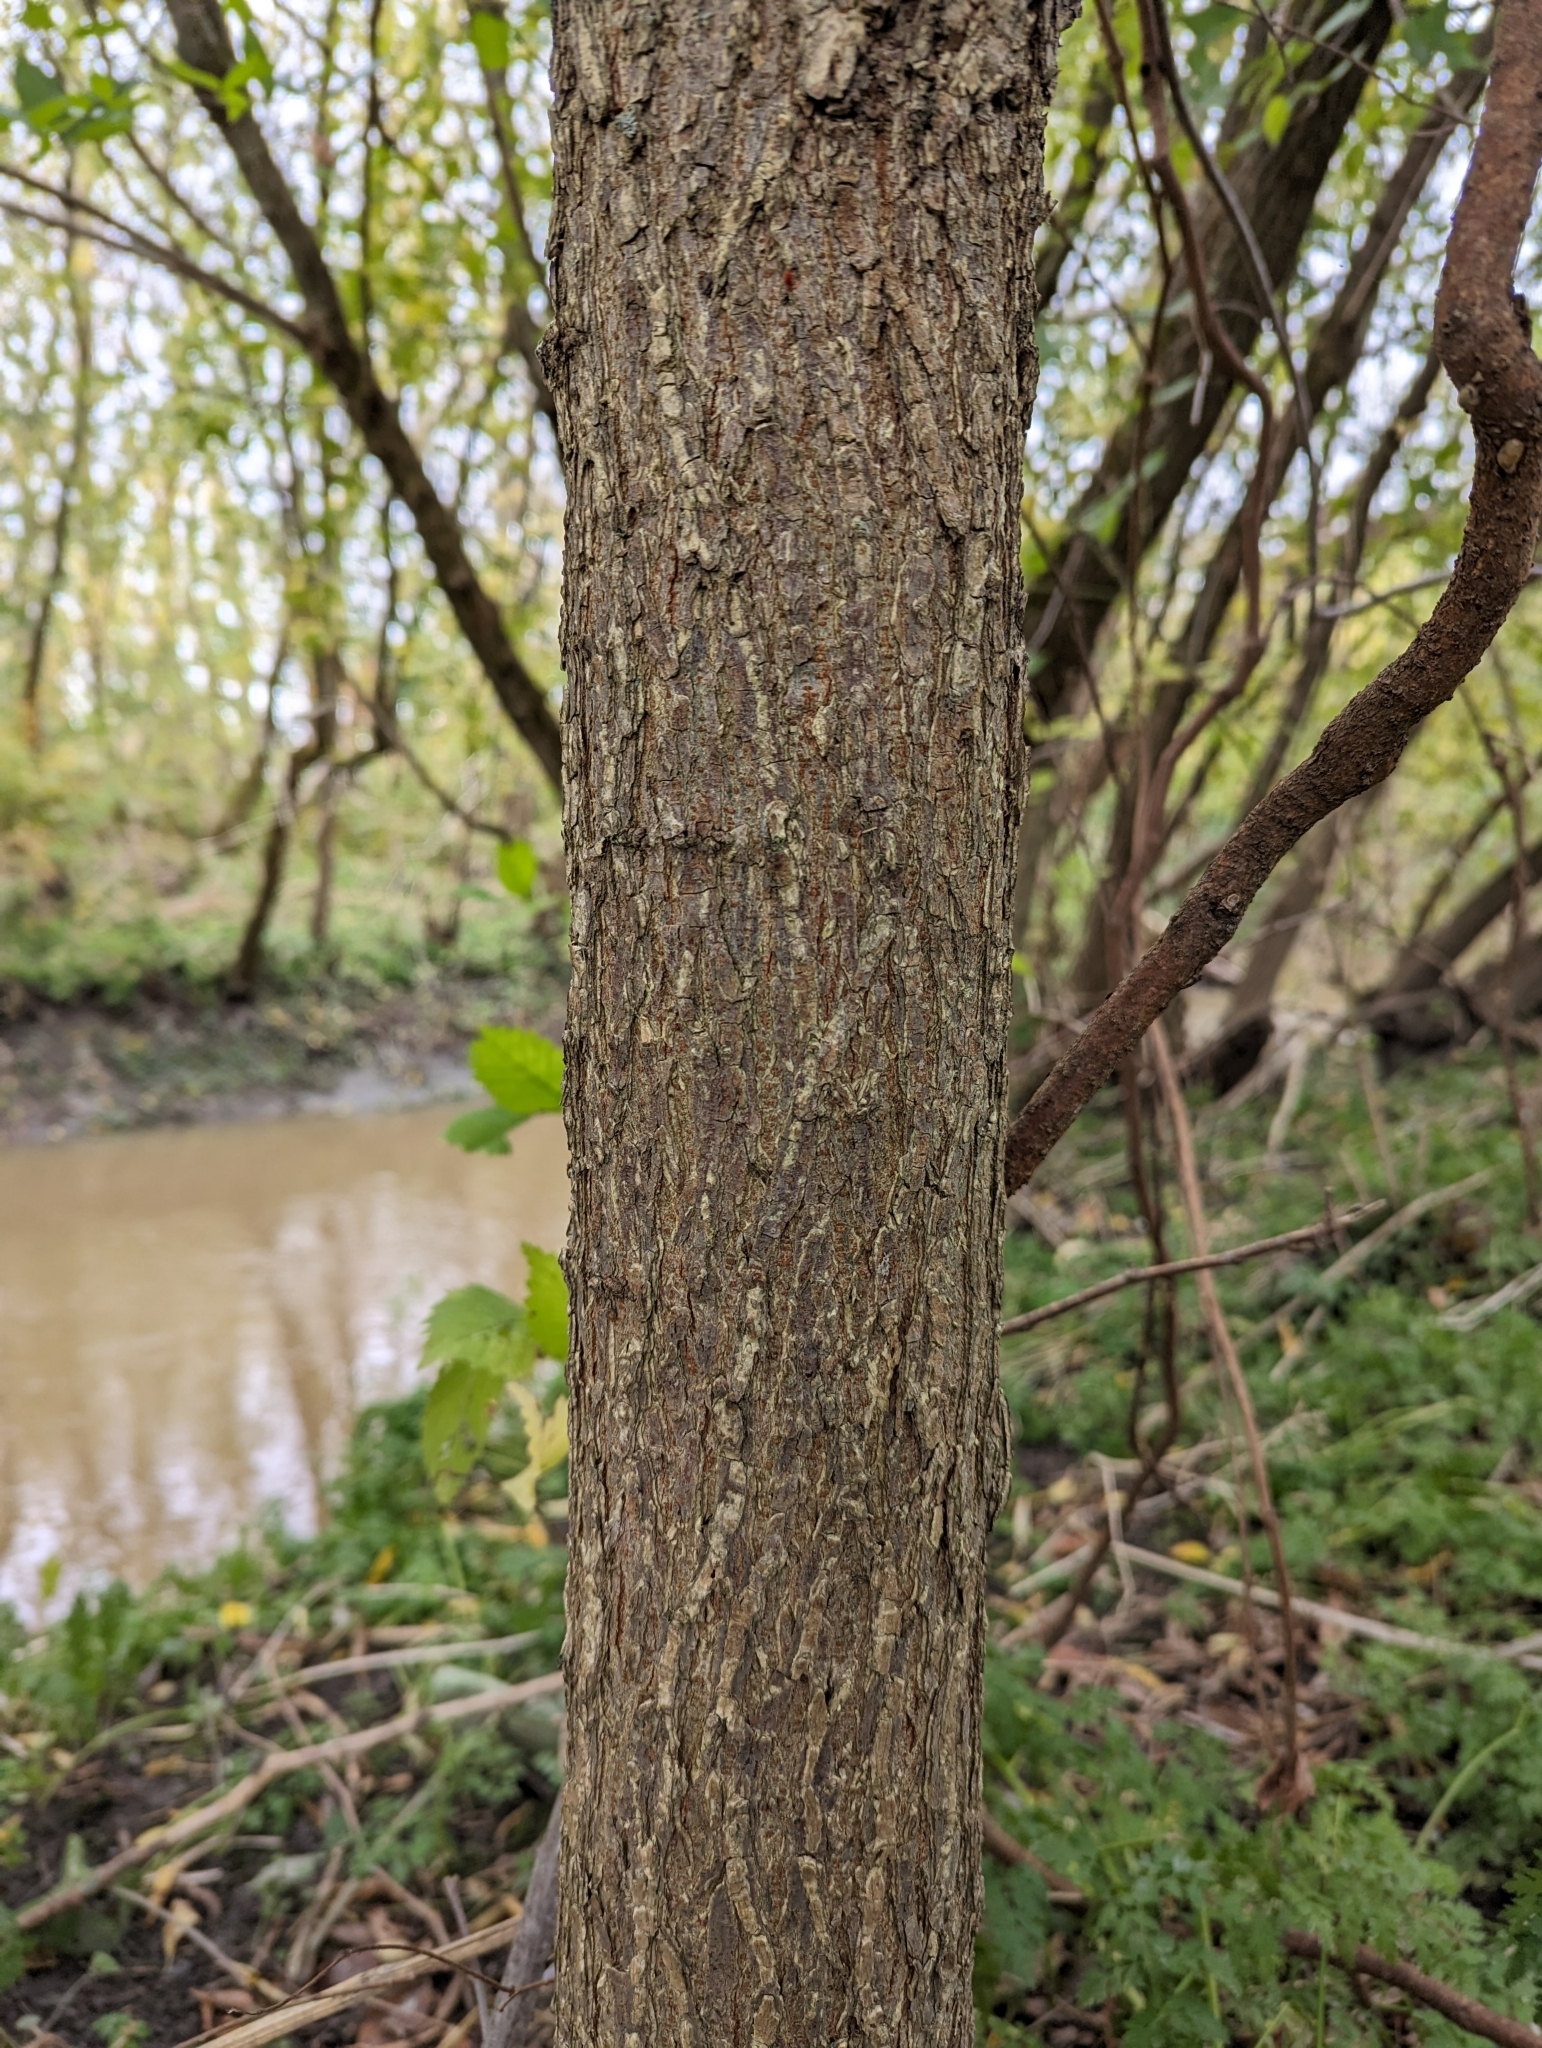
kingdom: Plantae
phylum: Tracheophyta
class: Magnoliopsida
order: Rosales
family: Ulmaceae
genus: Ulmus
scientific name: Ulmus americana
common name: American elm
